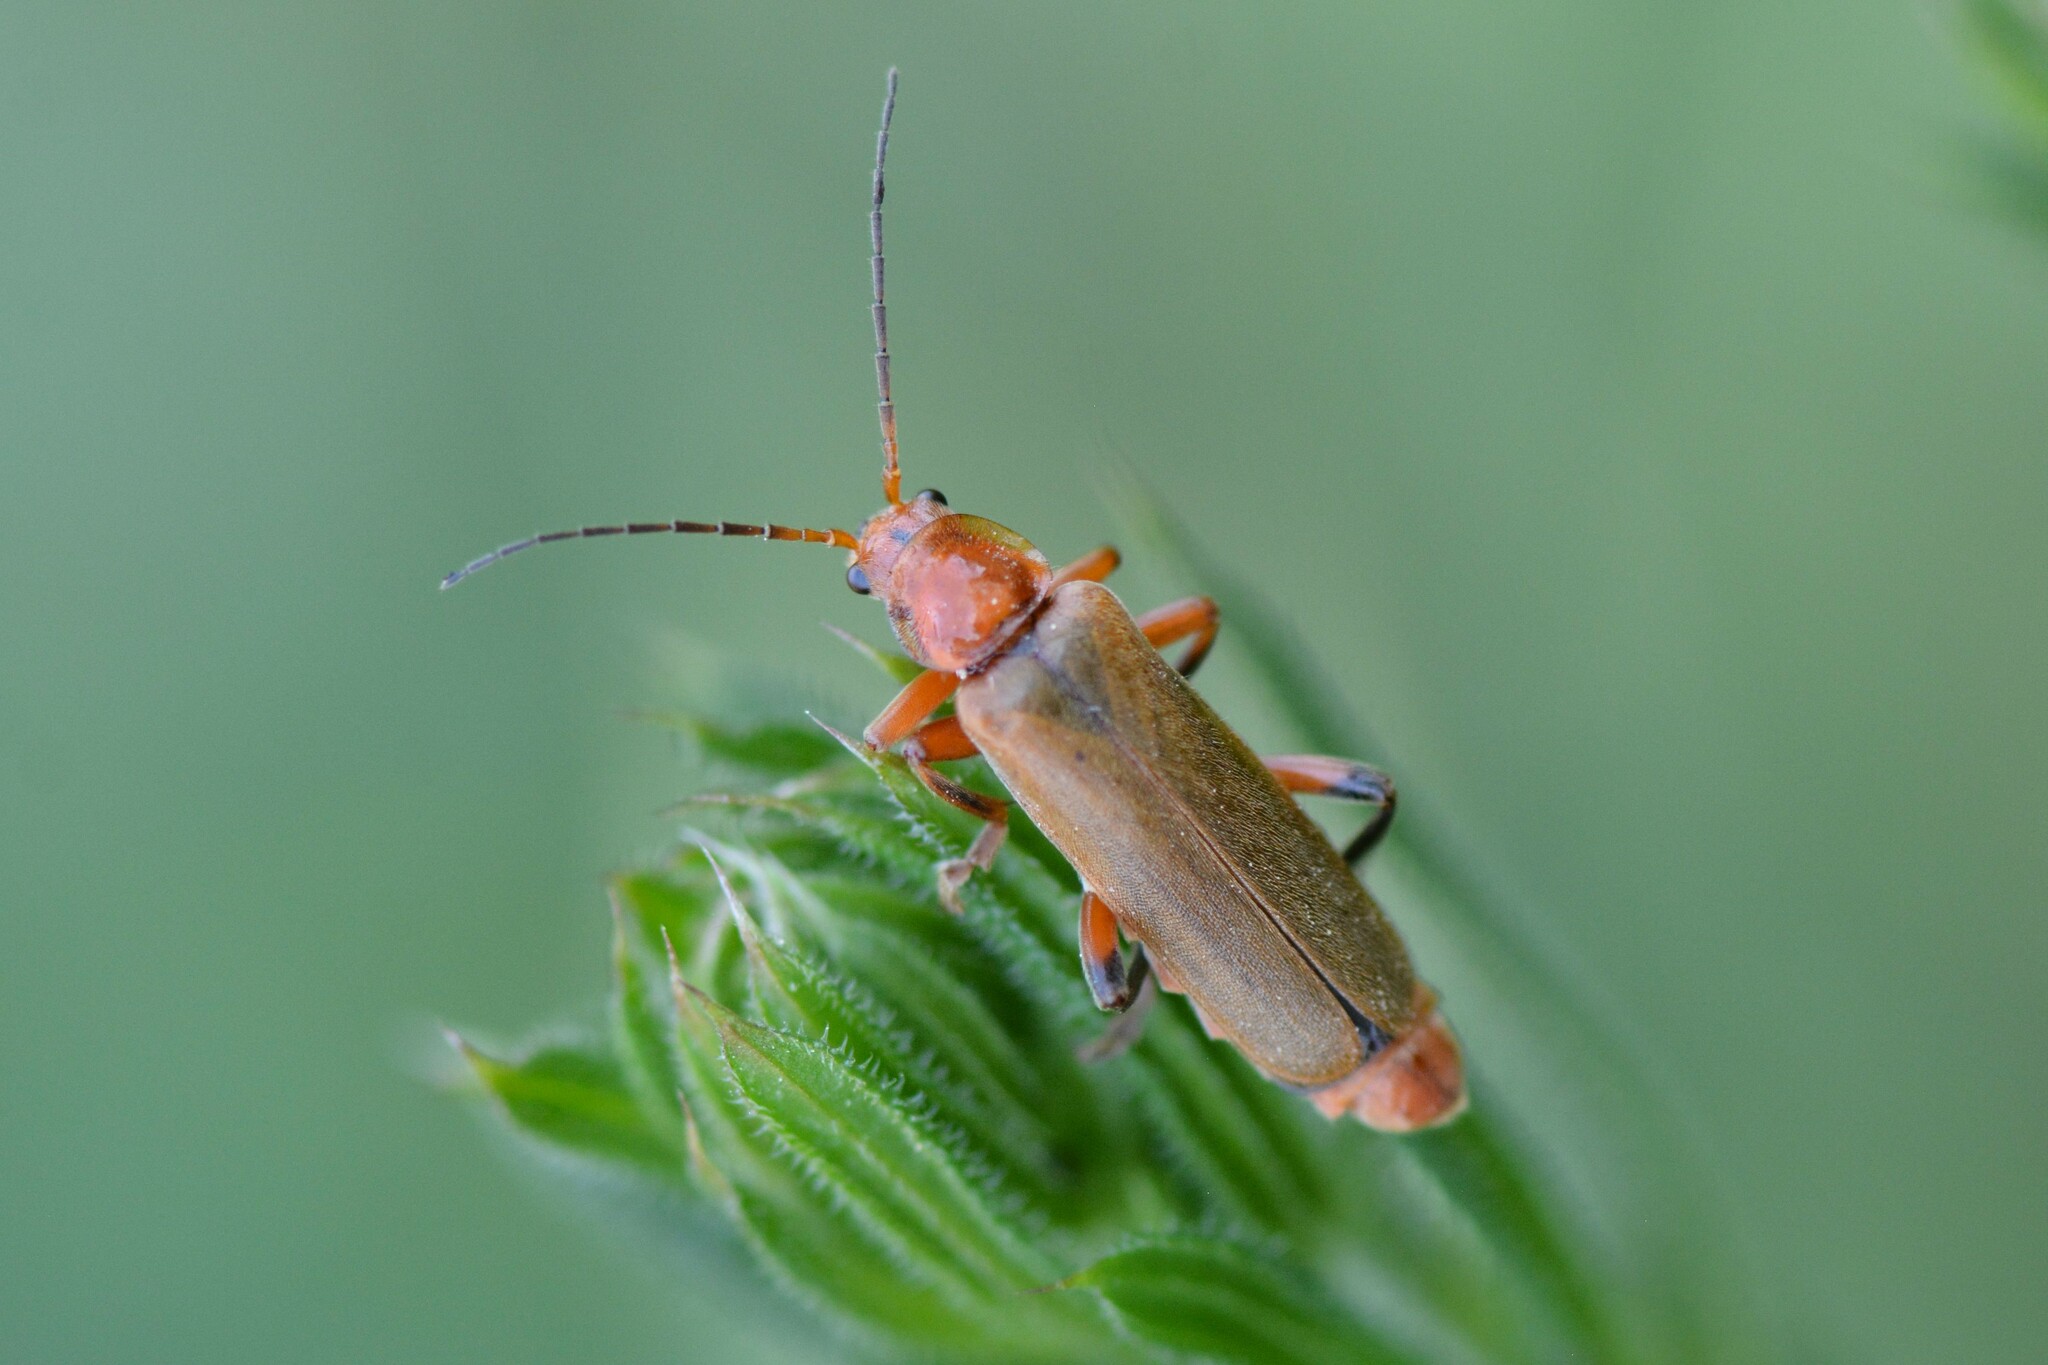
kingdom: Animalia
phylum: Arthropoda
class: Insecta
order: Coleoptera
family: Cantharidae
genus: Cantharis
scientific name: Cantharis livida
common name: Livid soldier beetle
